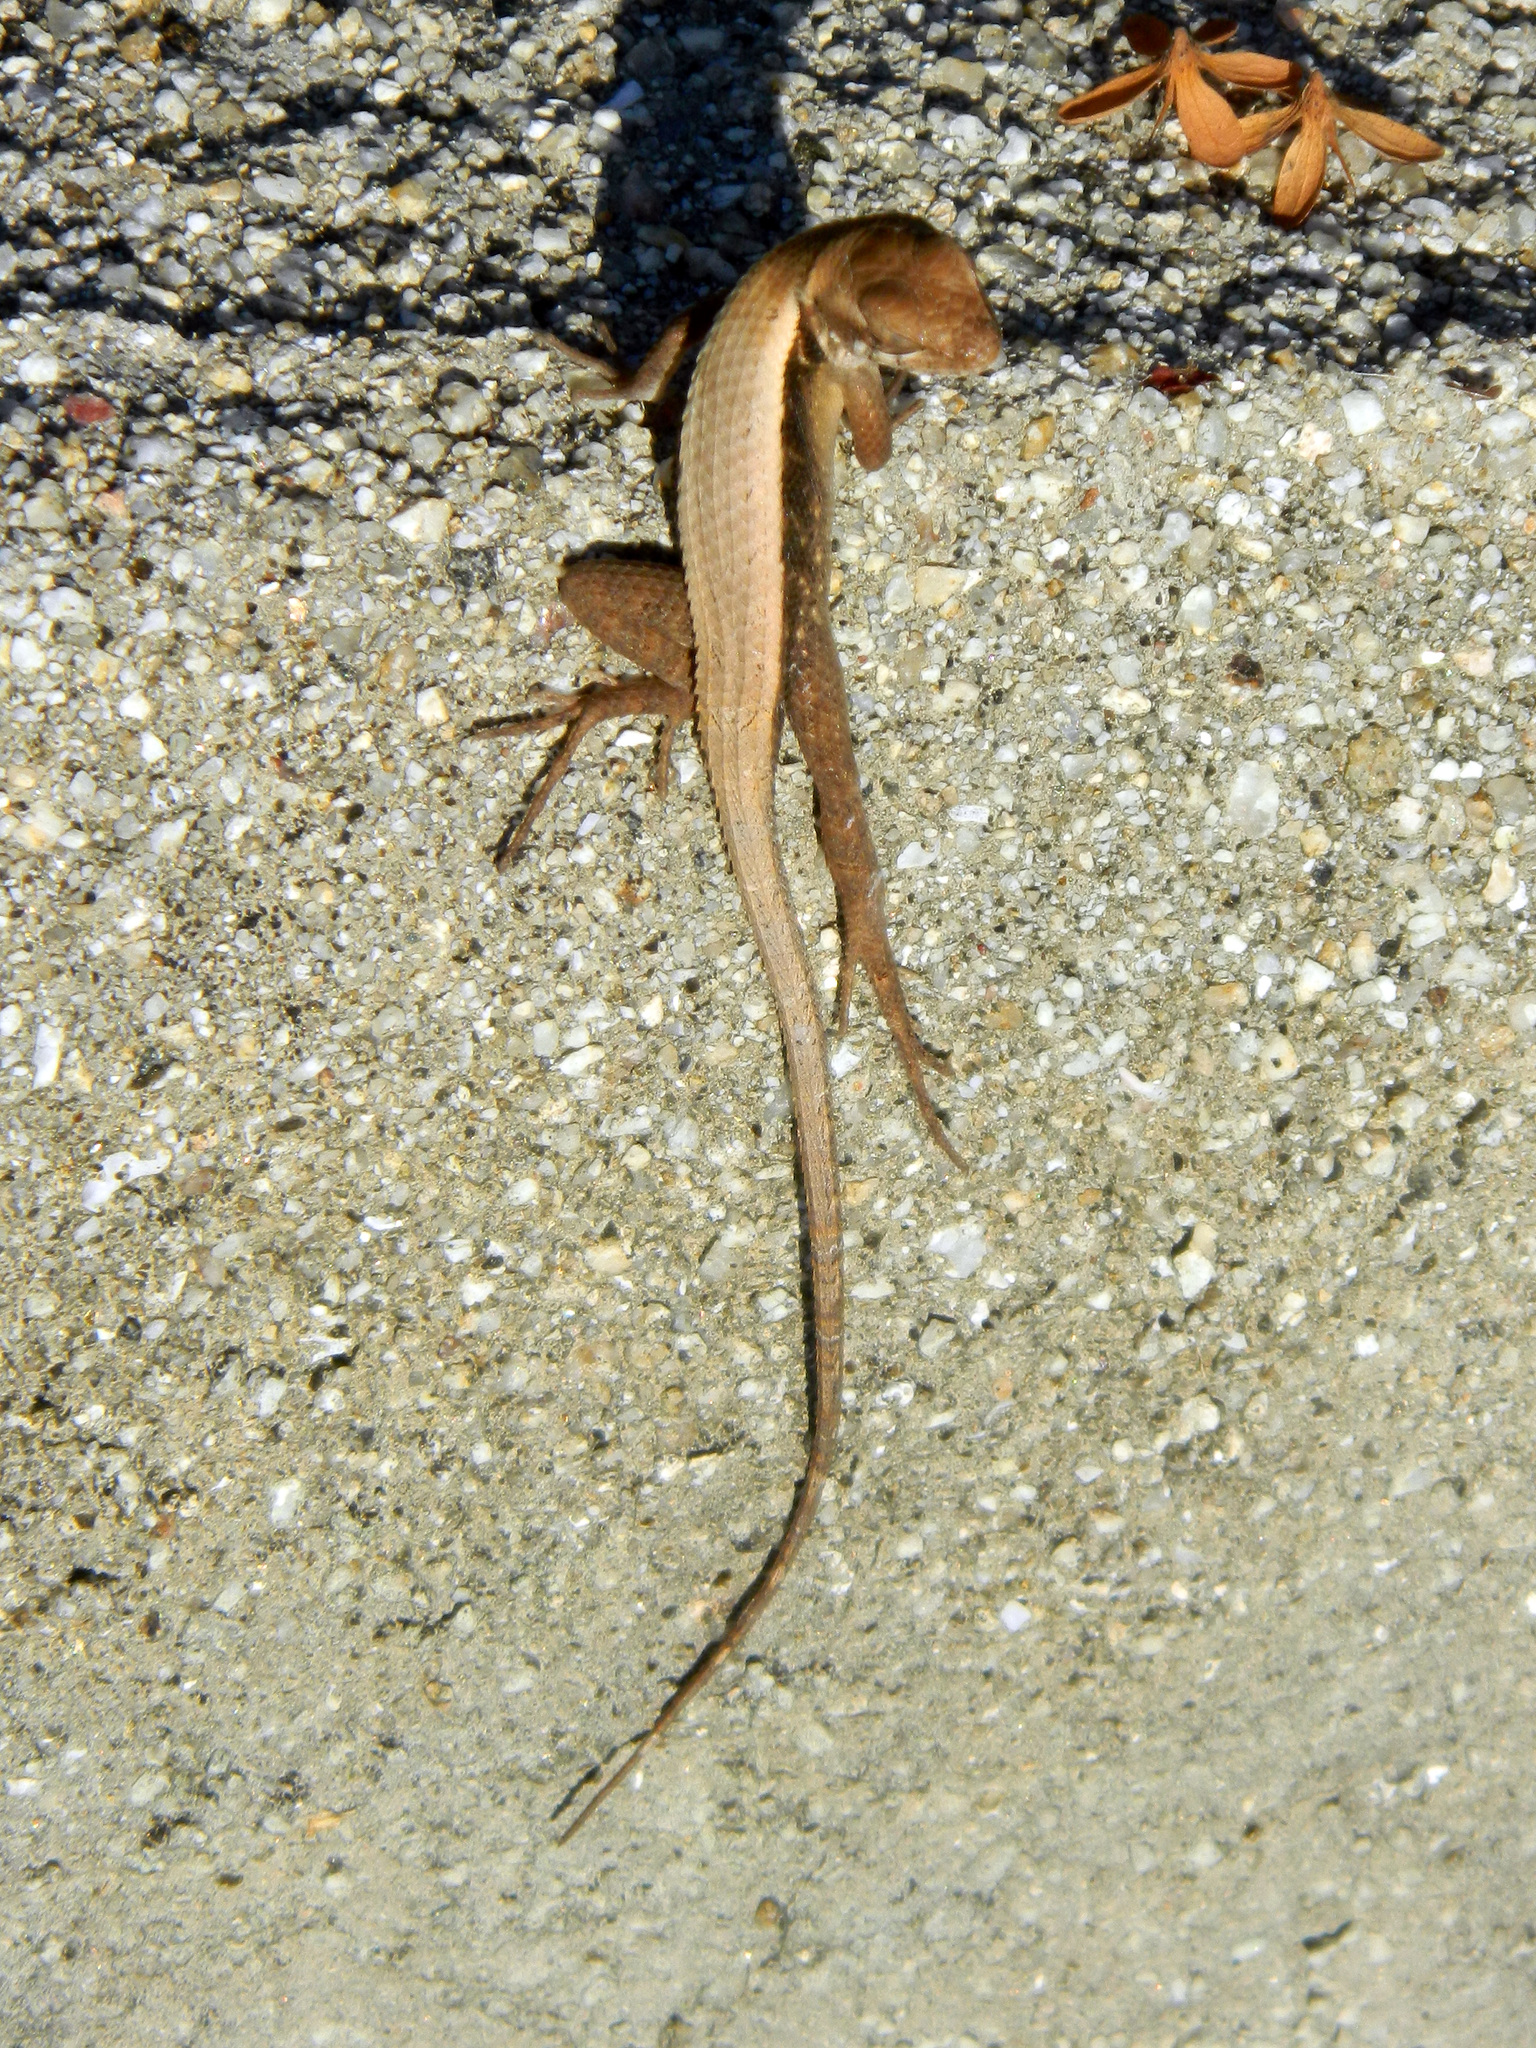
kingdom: Animalia
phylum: Chordata
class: Squamata
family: Phrynosomatidae
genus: Sceloporus
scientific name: Sceloporus siniferus
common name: Longtail spiny lizard
